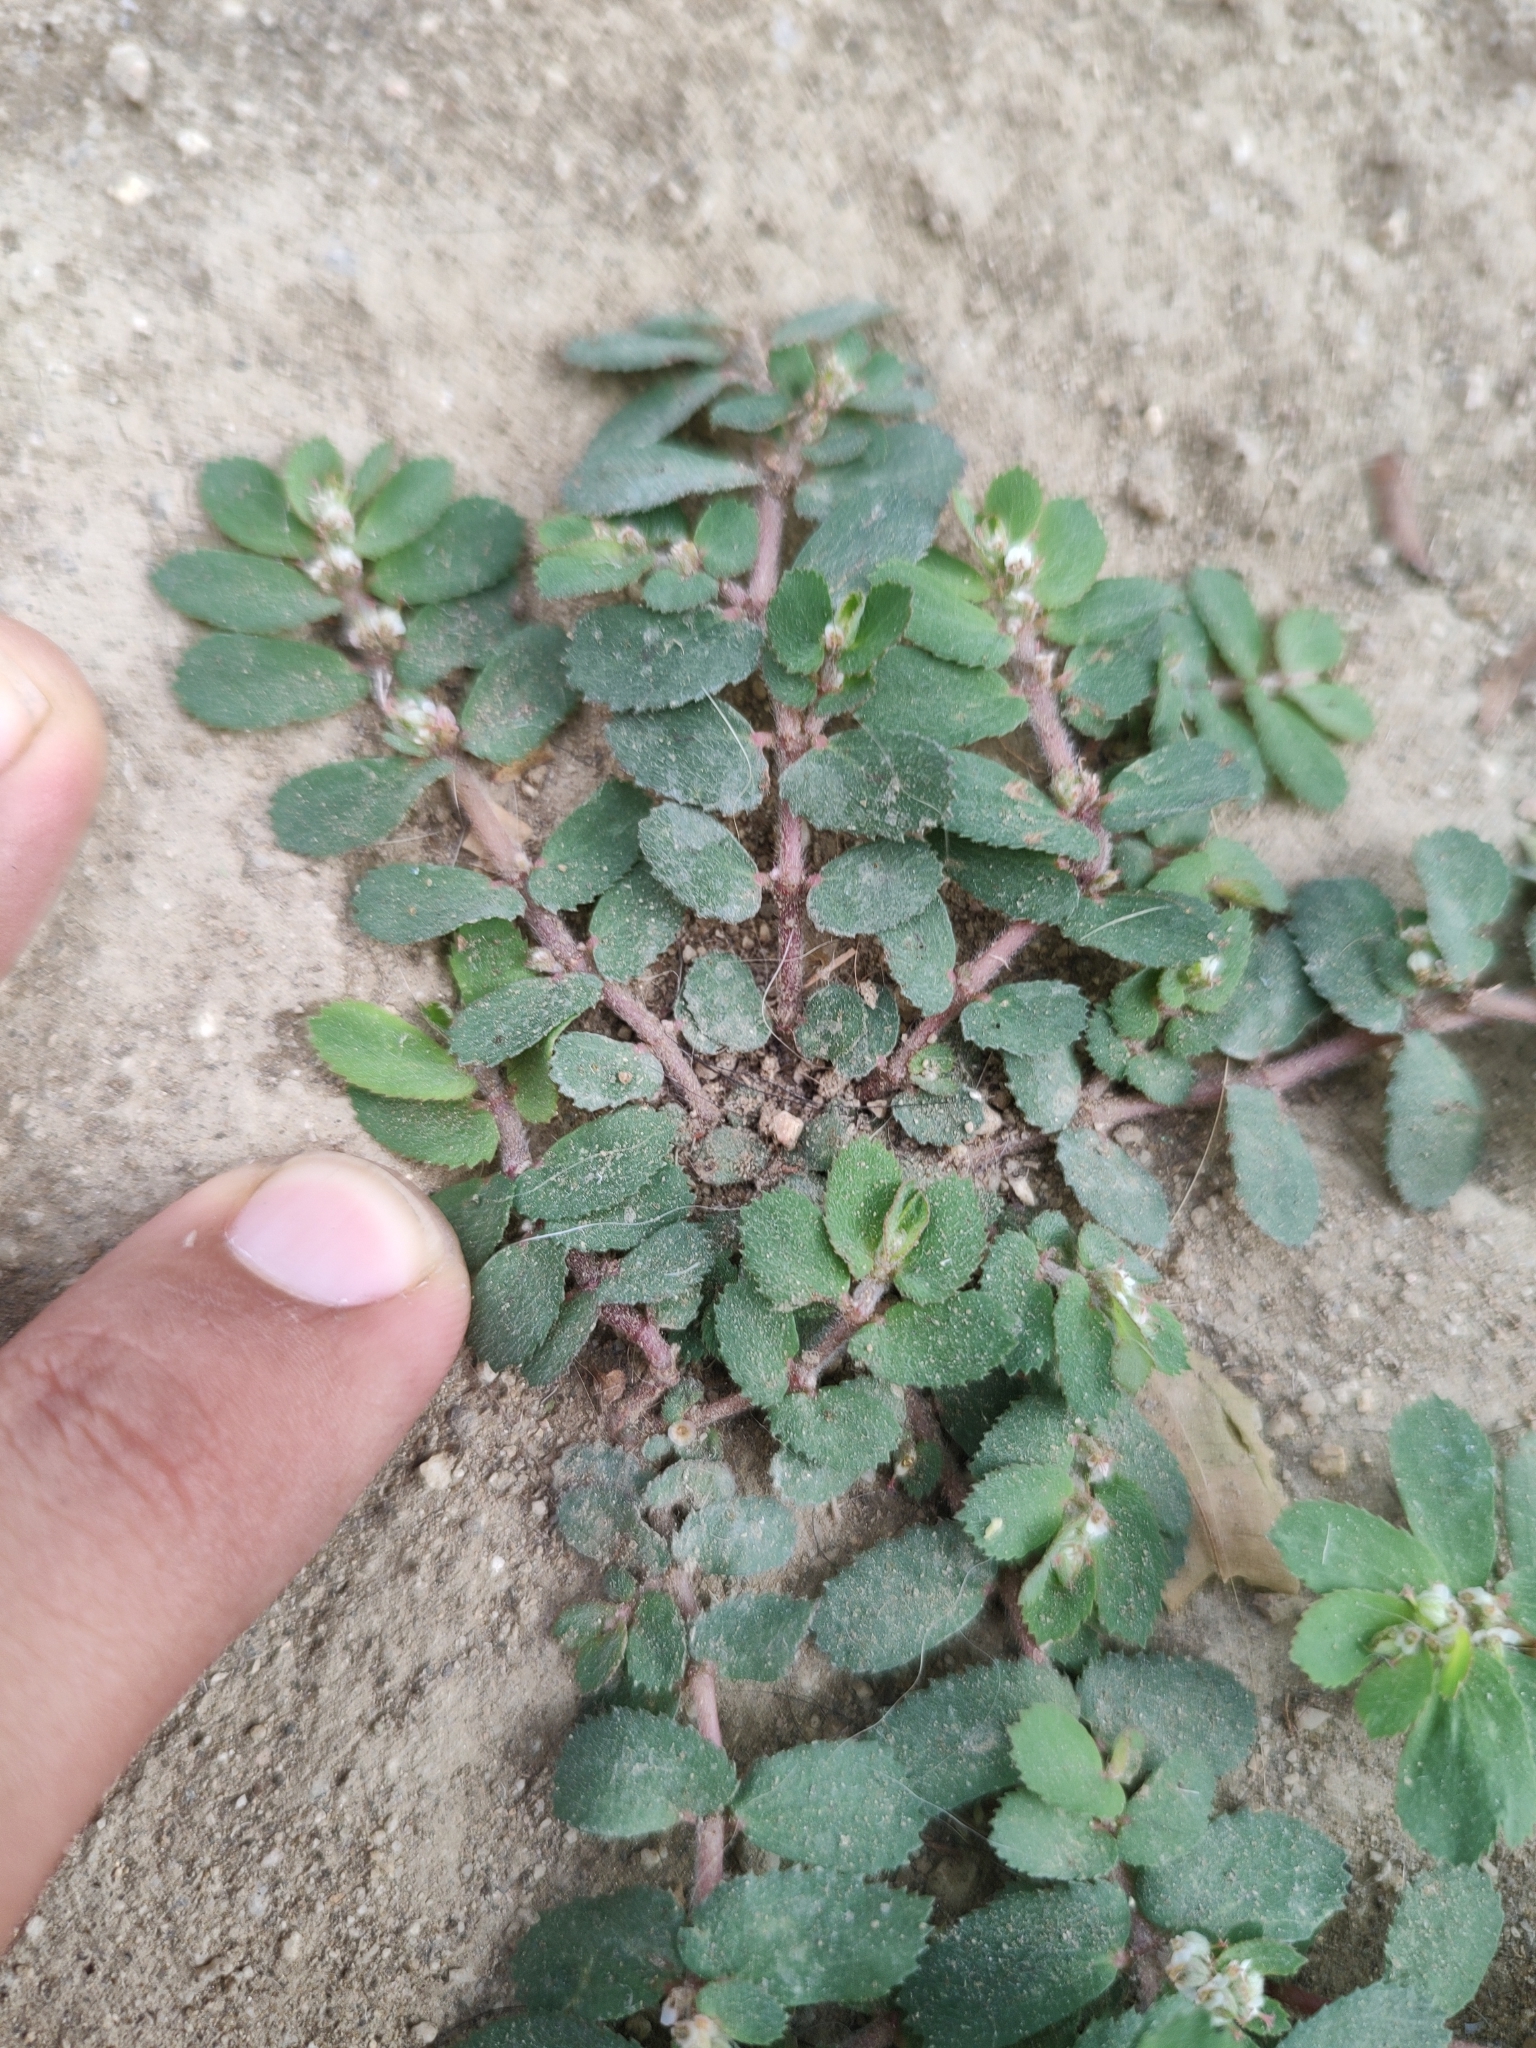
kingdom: Plantae
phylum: Tracheophyta
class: Magnoliopsida
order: Malpighiales
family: Euphorbiaceae
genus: Euphorbia
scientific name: Euphorbia dioeca
